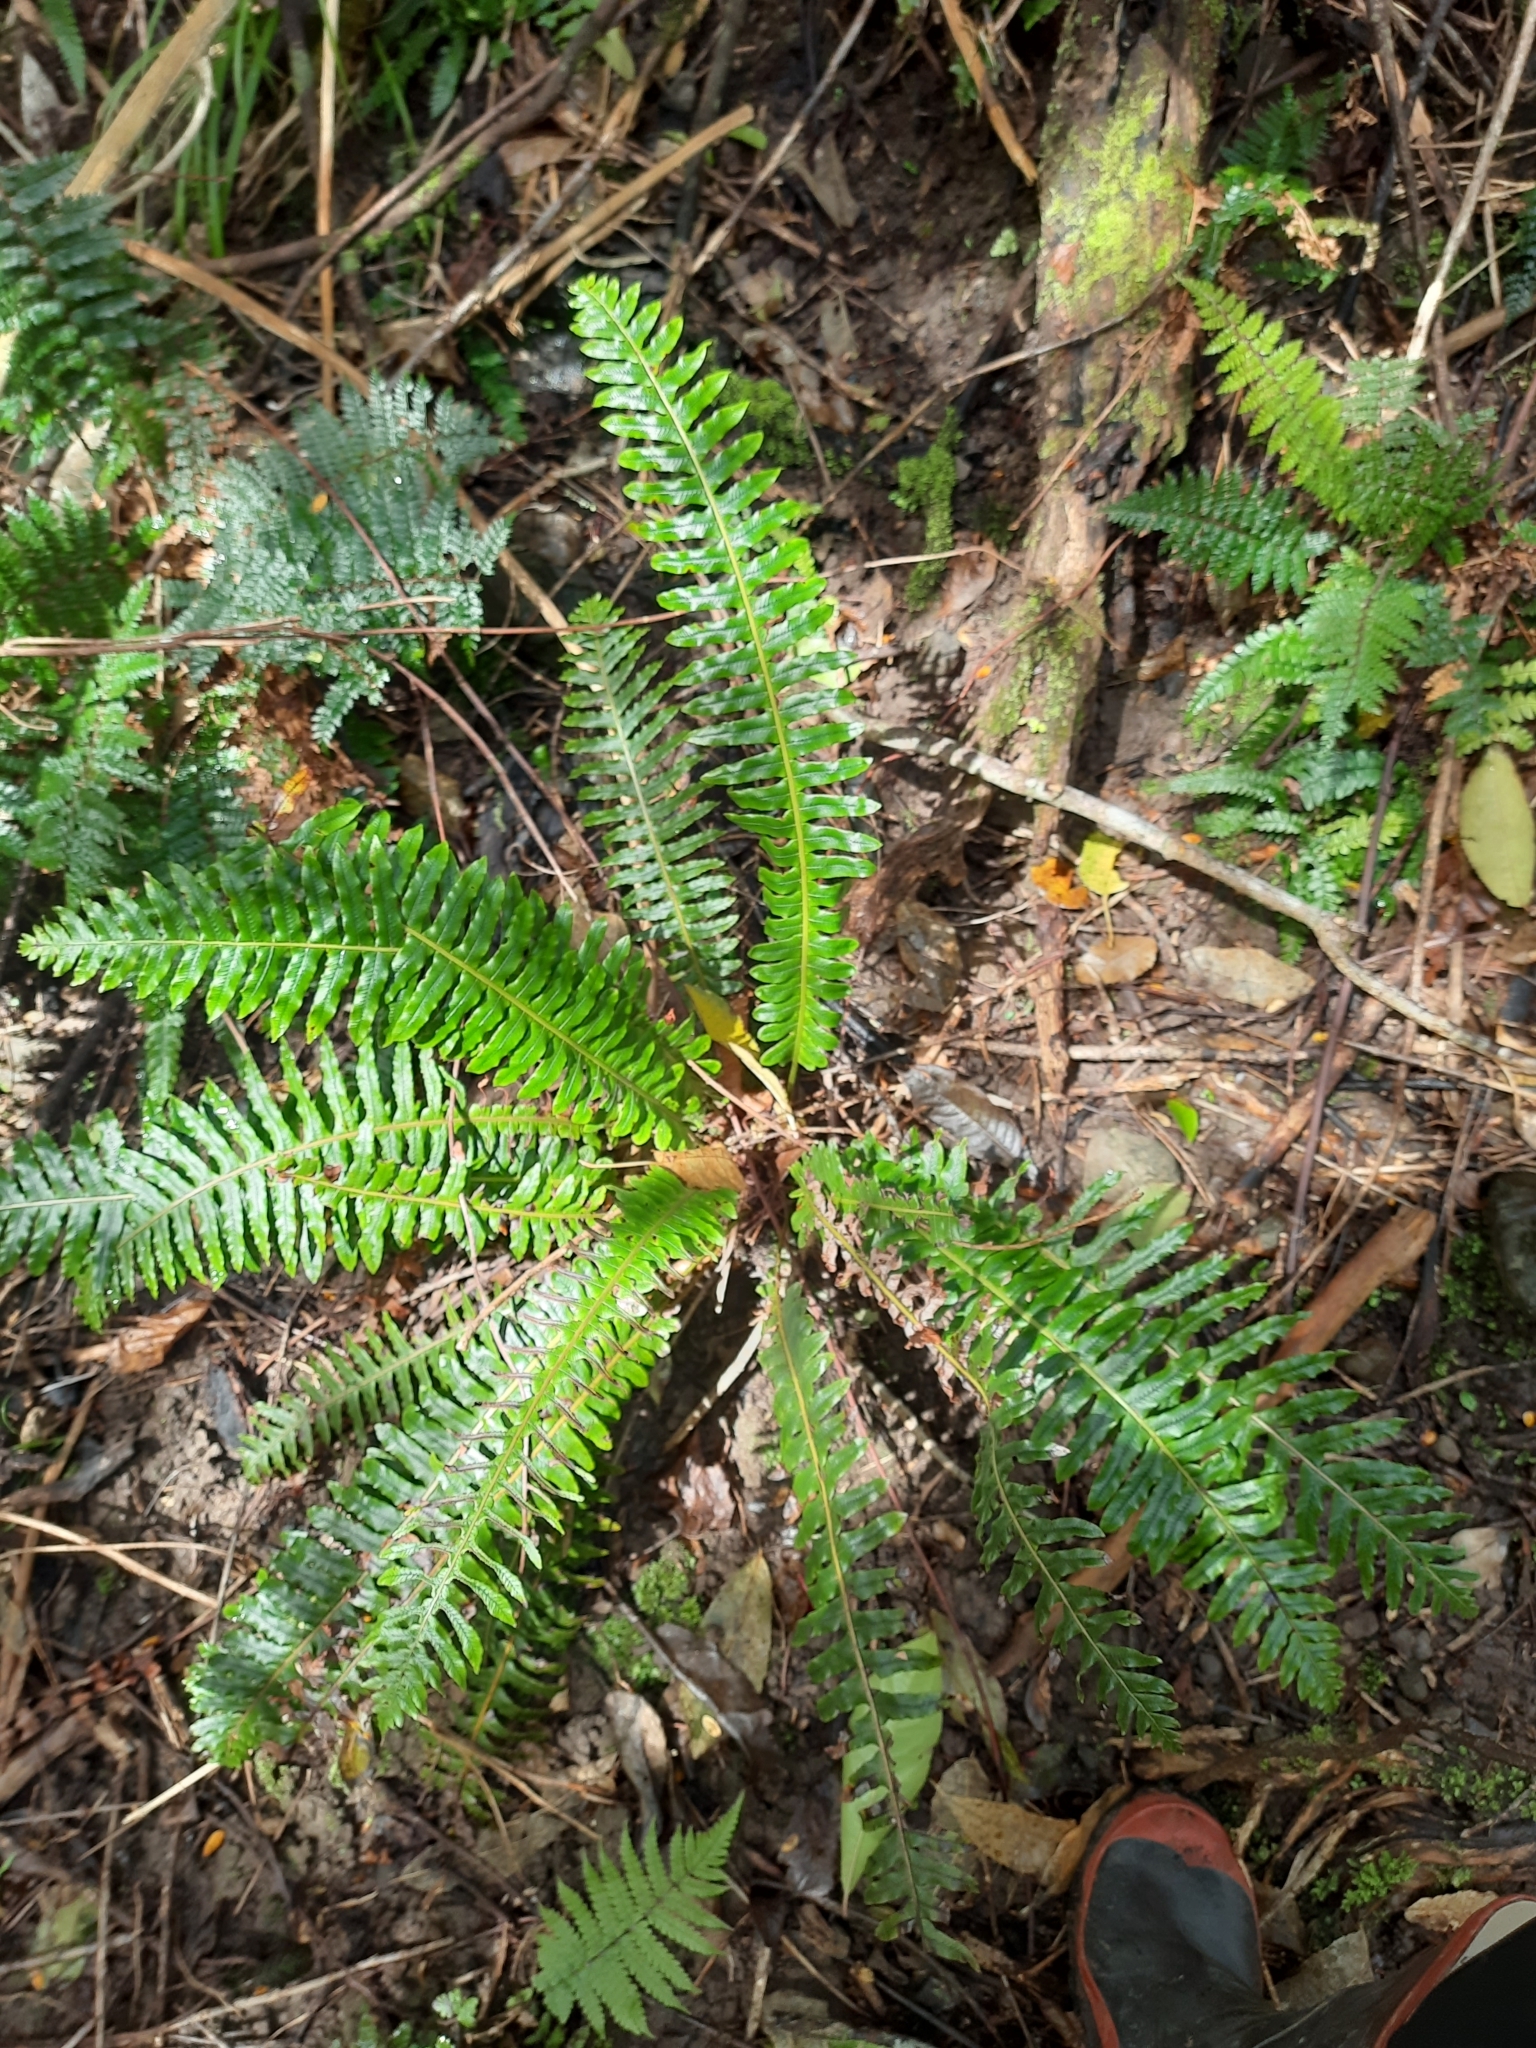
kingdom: Plantae
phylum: Tracheophyta
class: Polypodiopsida
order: Polypodiales
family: Blechnaceae
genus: Lomaria
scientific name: Lomaria discolor
